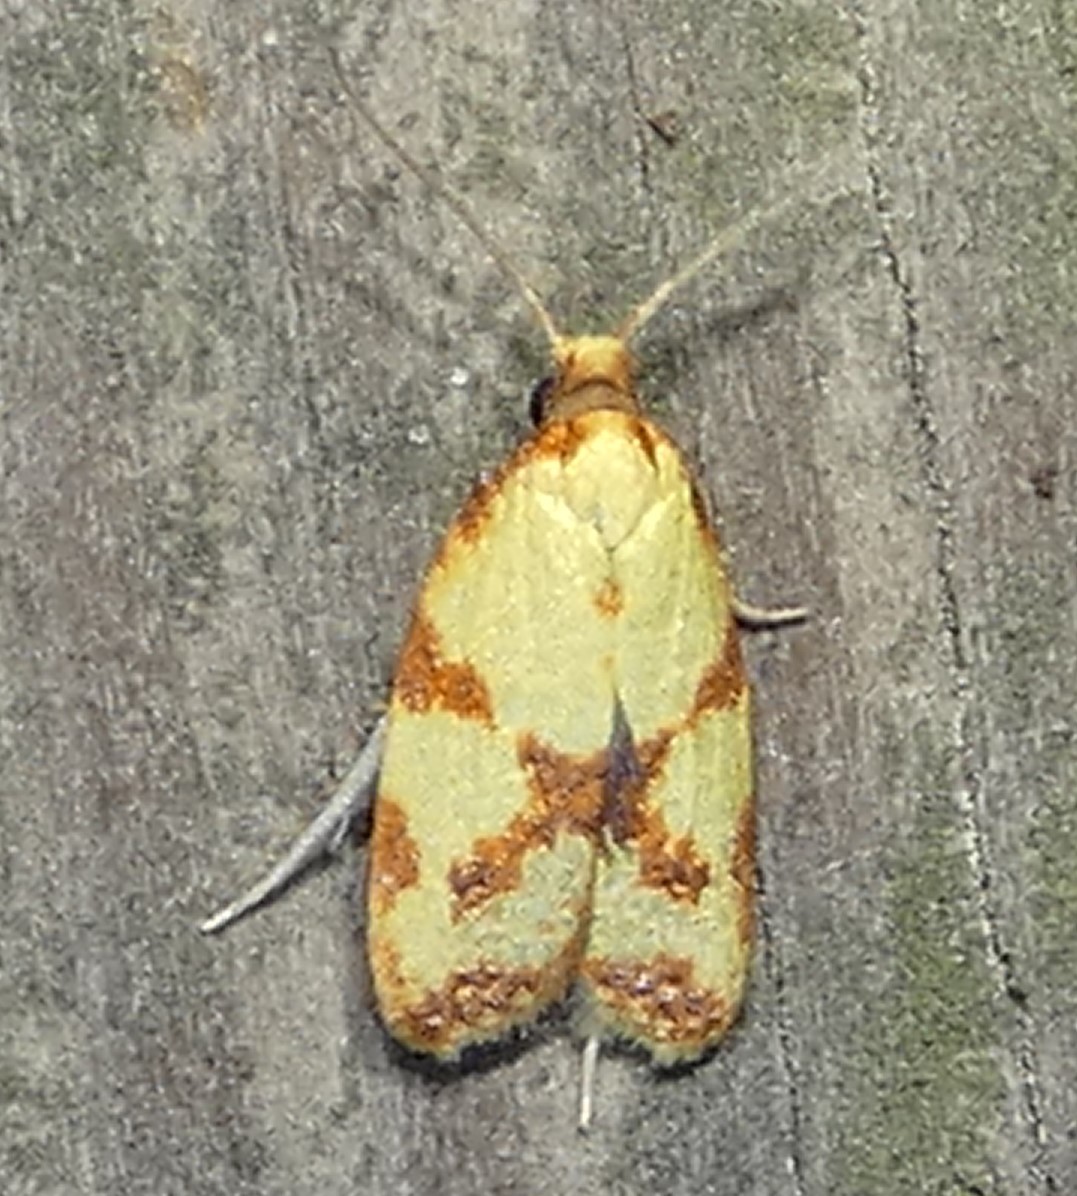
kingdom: Animalia
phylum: Arthropoda
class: Insecta
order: Lepidoptera
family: Tortricidae
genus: Sparganothis
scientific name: Sparganothis sulfureana
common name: Sparganothis fruitworm moth
